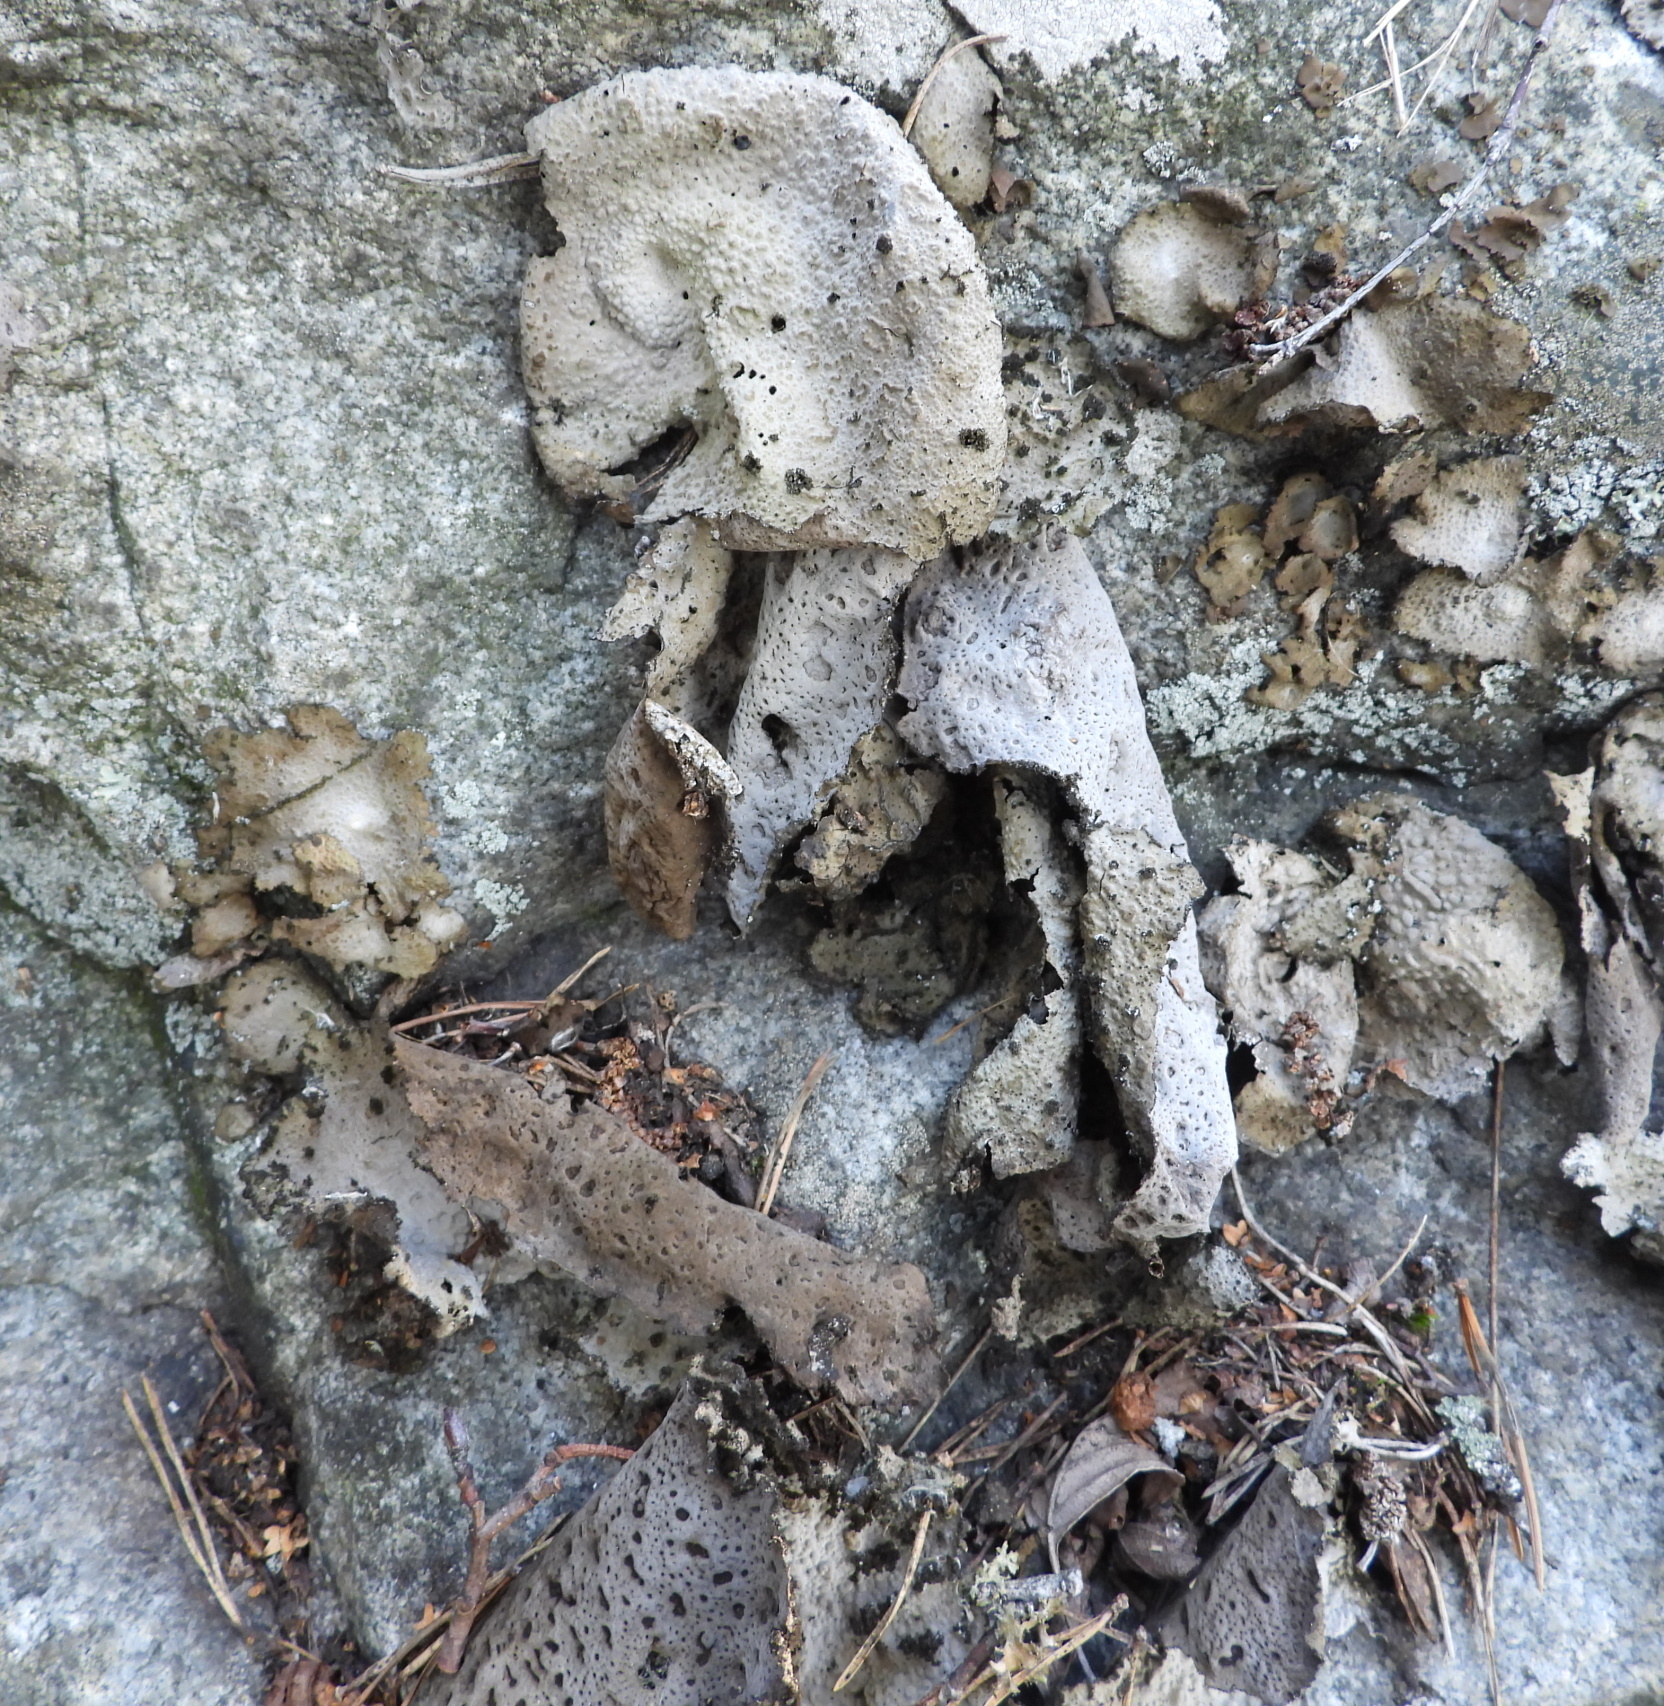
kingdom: Fungi
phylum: Ascomycota
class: Lecanoromycetes
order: Umbilicariales
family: Umbilicariaceae
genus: Lasallia
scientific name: Lasallia pustulata
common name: Blistered toadskin lichen
